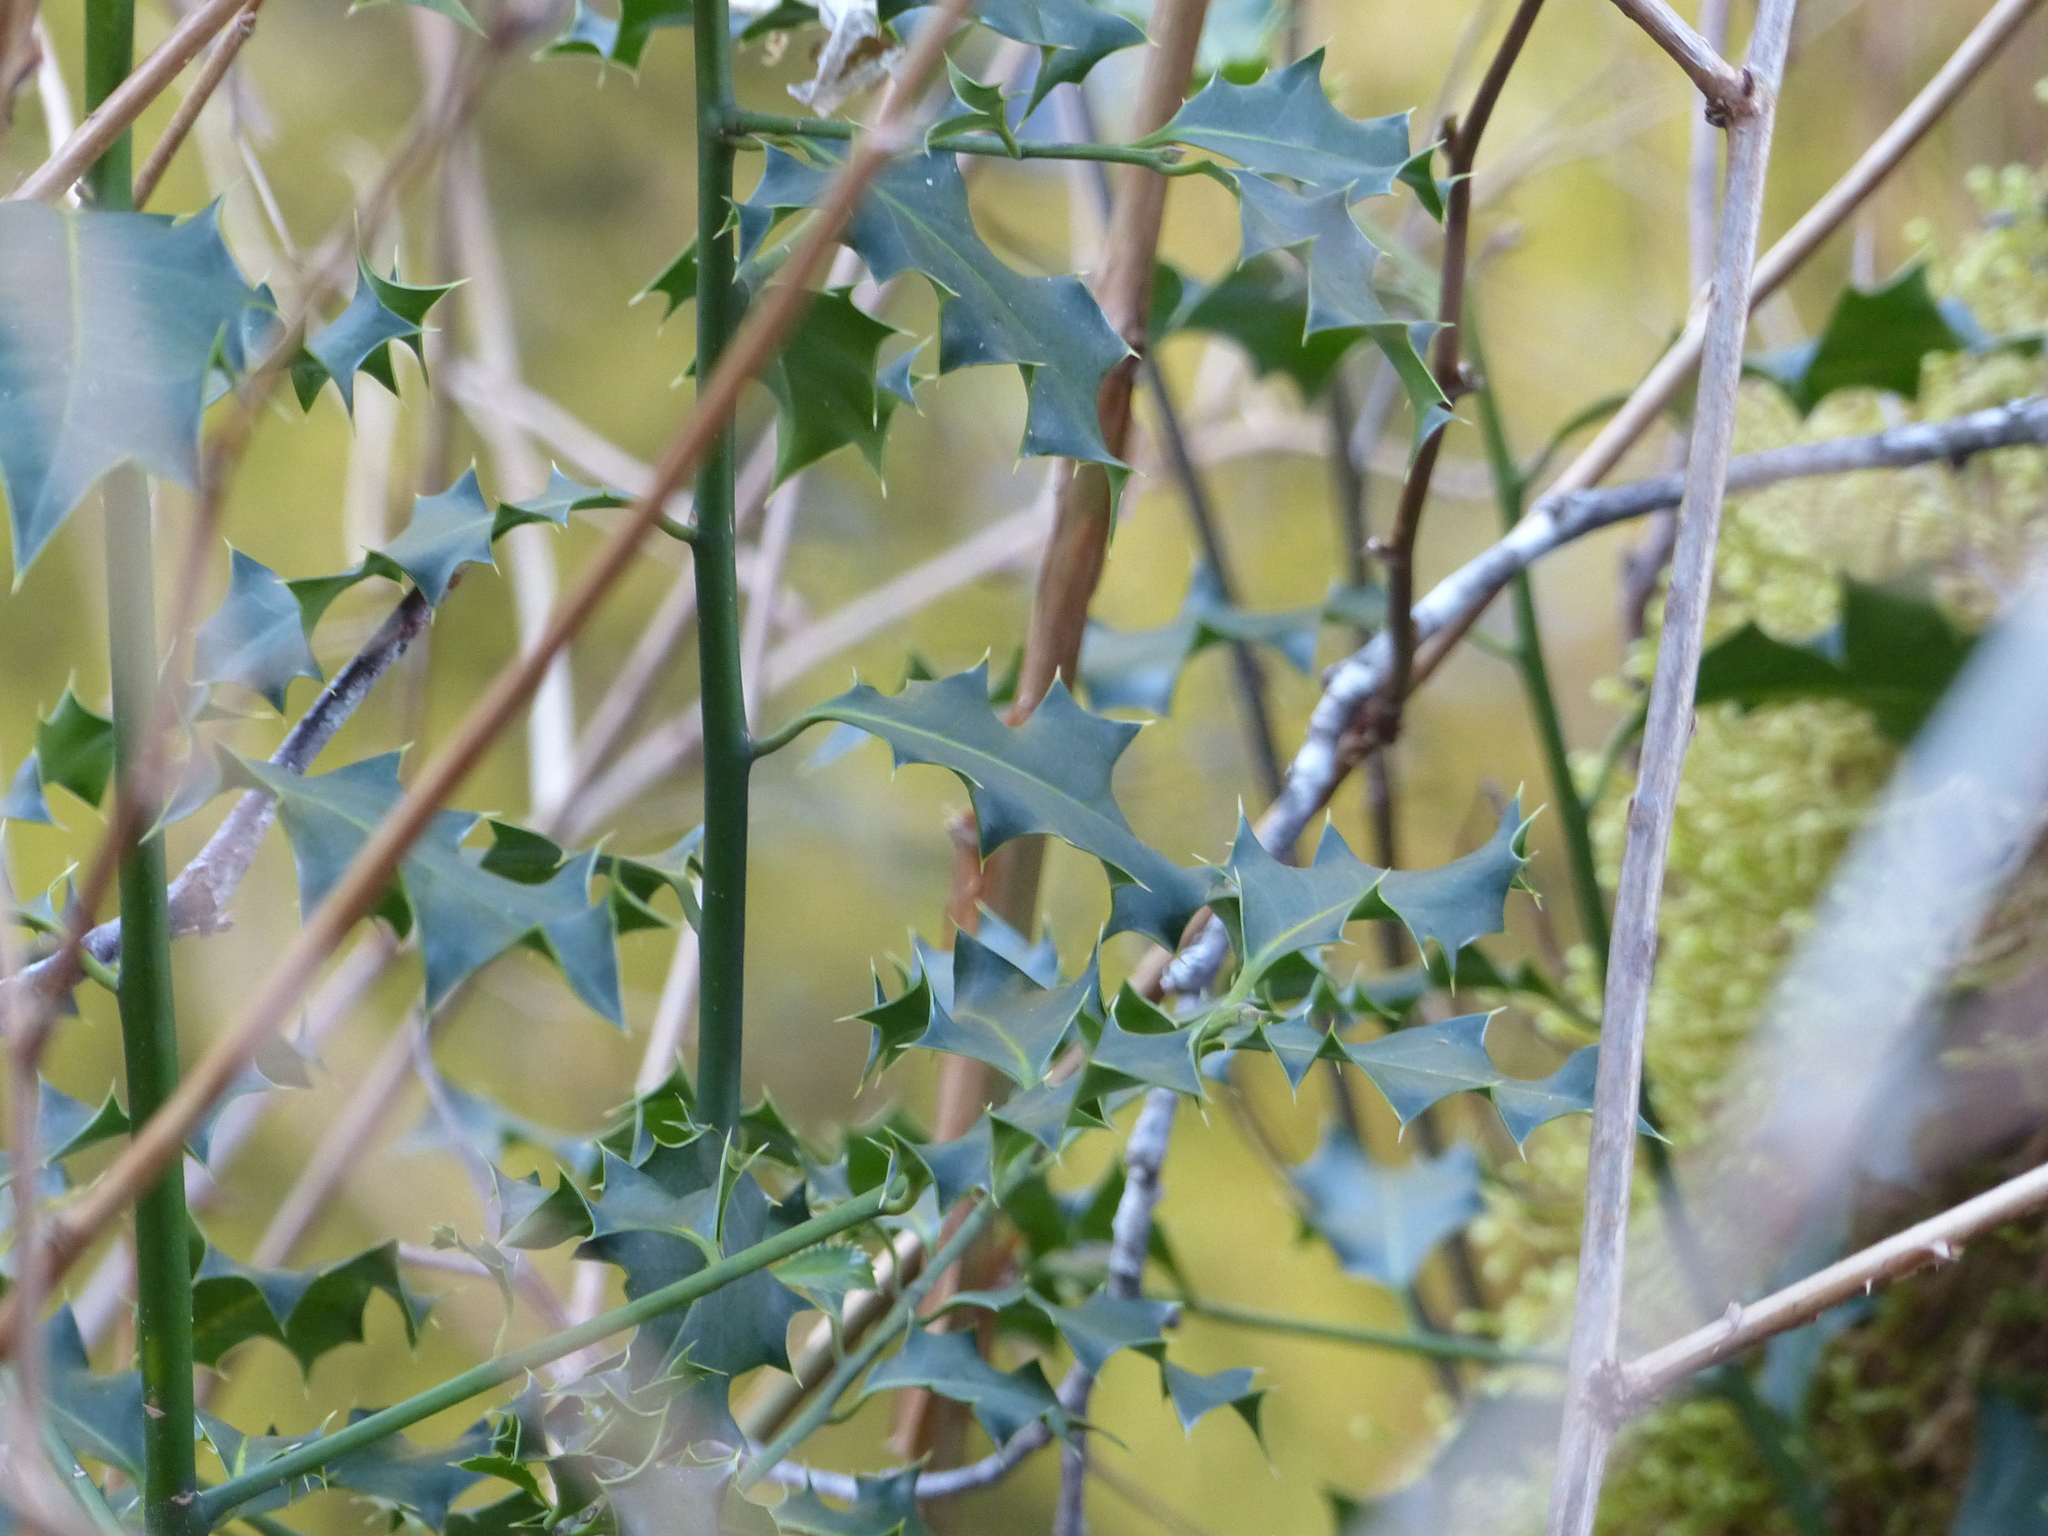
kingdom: Plantae
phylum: Tracheophyta
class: Magnoliopsida
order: Aquifoliales
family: Aquifoliaceae
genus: Ilex
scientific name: Ilex aquifolium
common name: English holly
